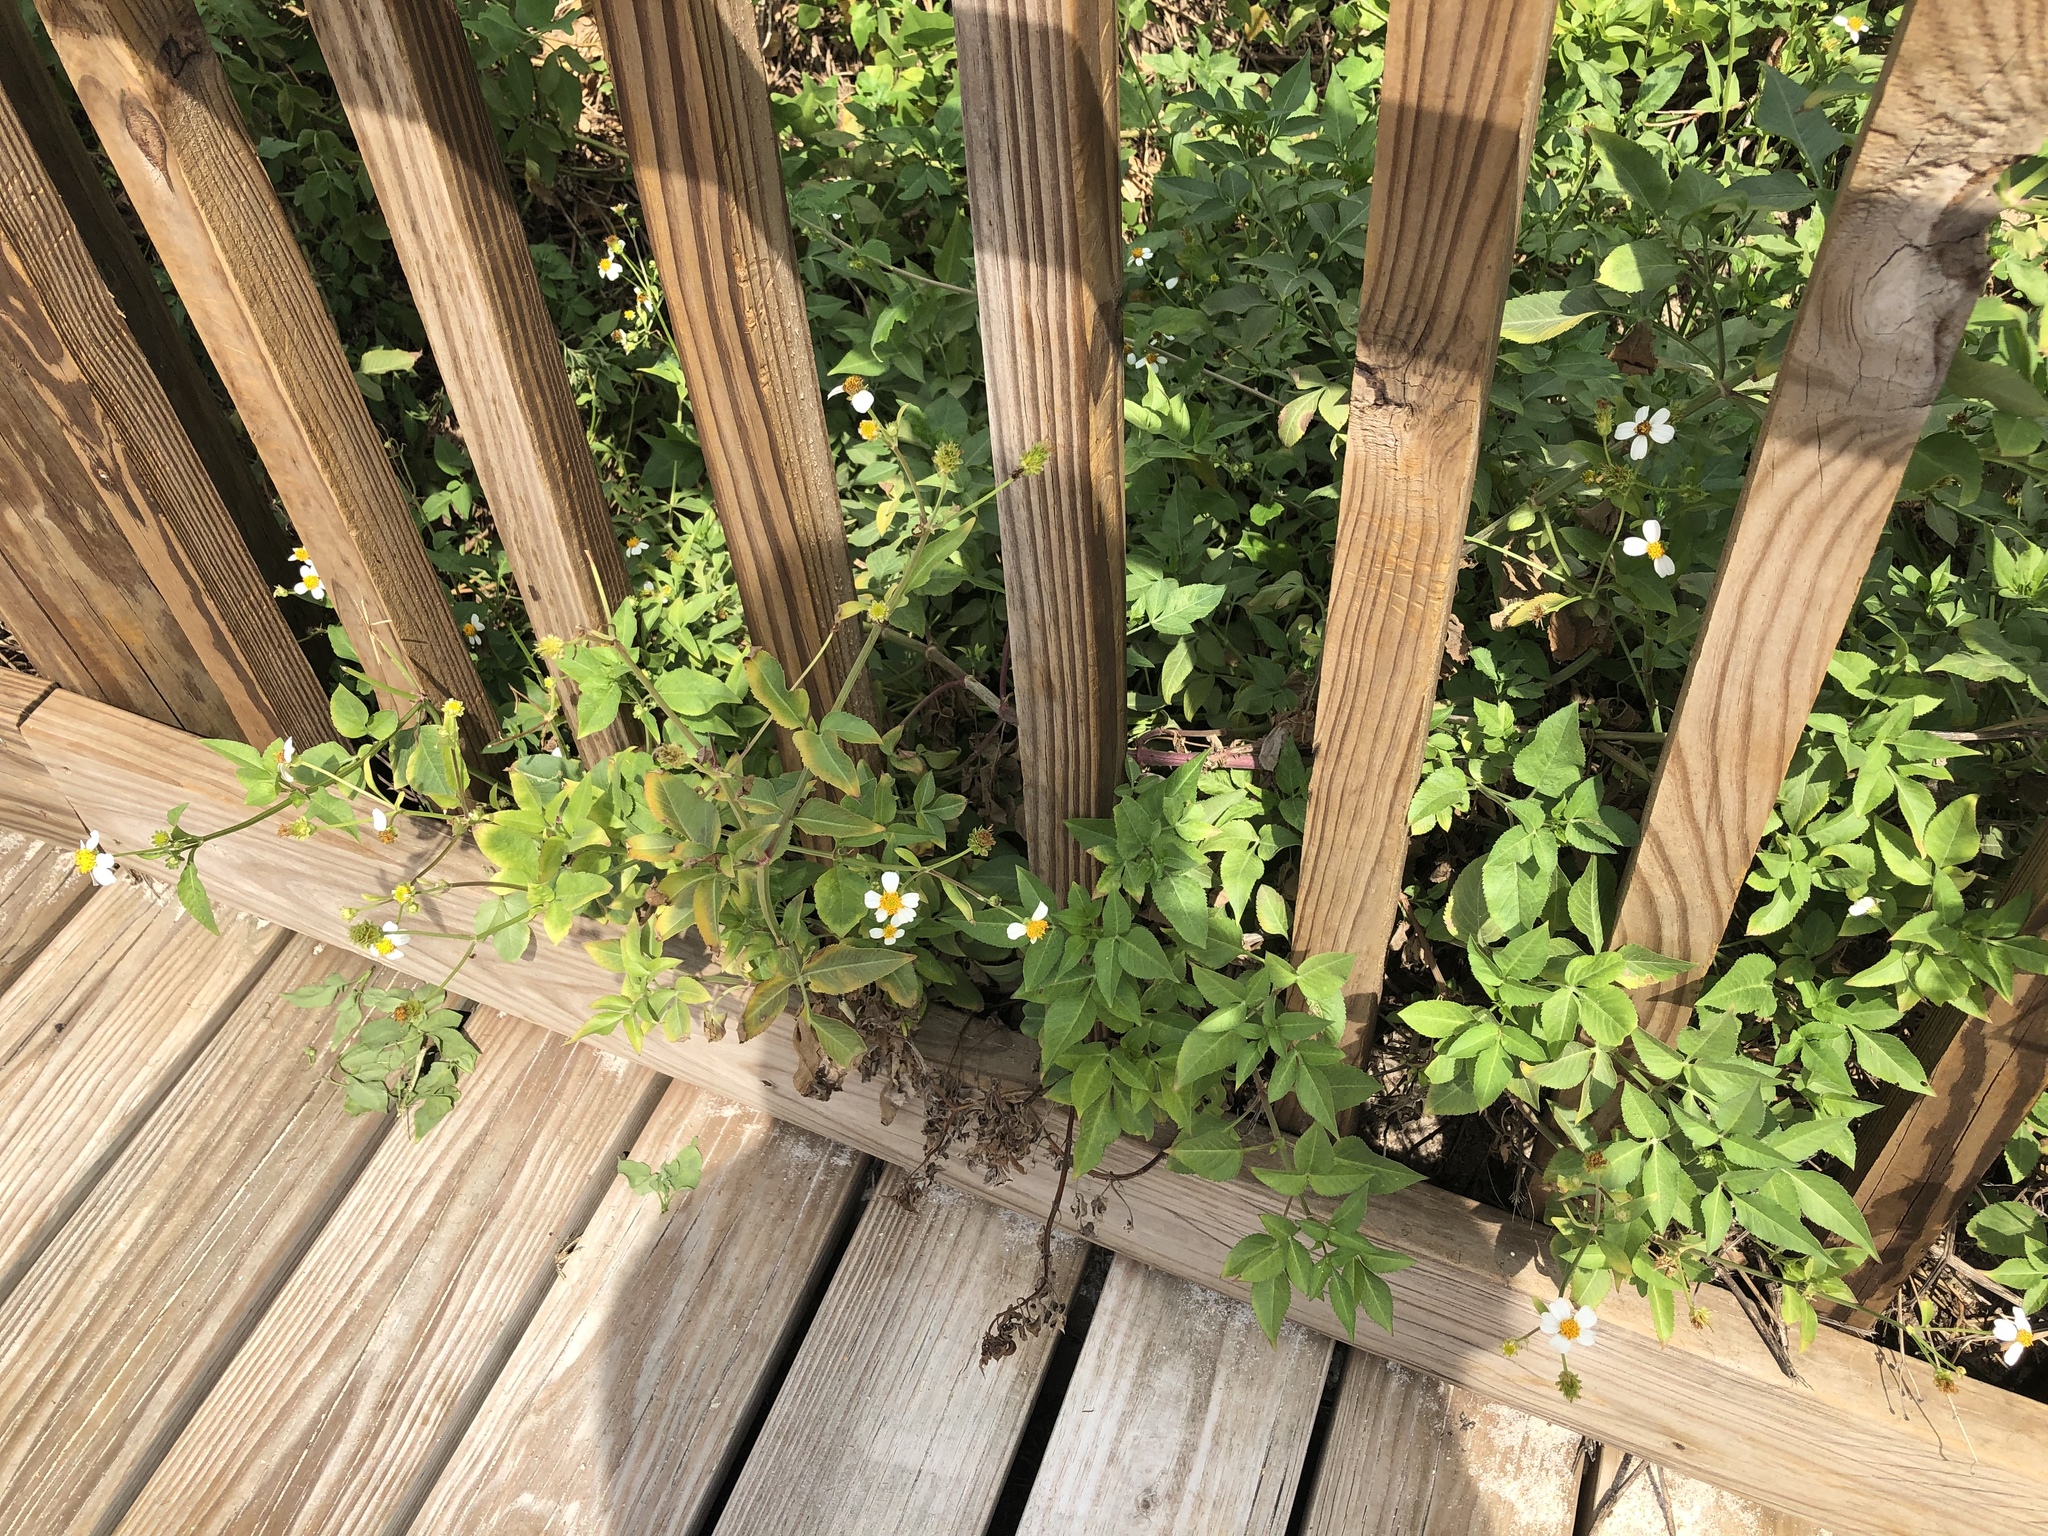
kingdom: Plantae
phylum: Tracheophyta
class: Magnoliopsida
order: Asterales
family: Asteraceae
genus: Bidens
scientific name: Bidens alba
